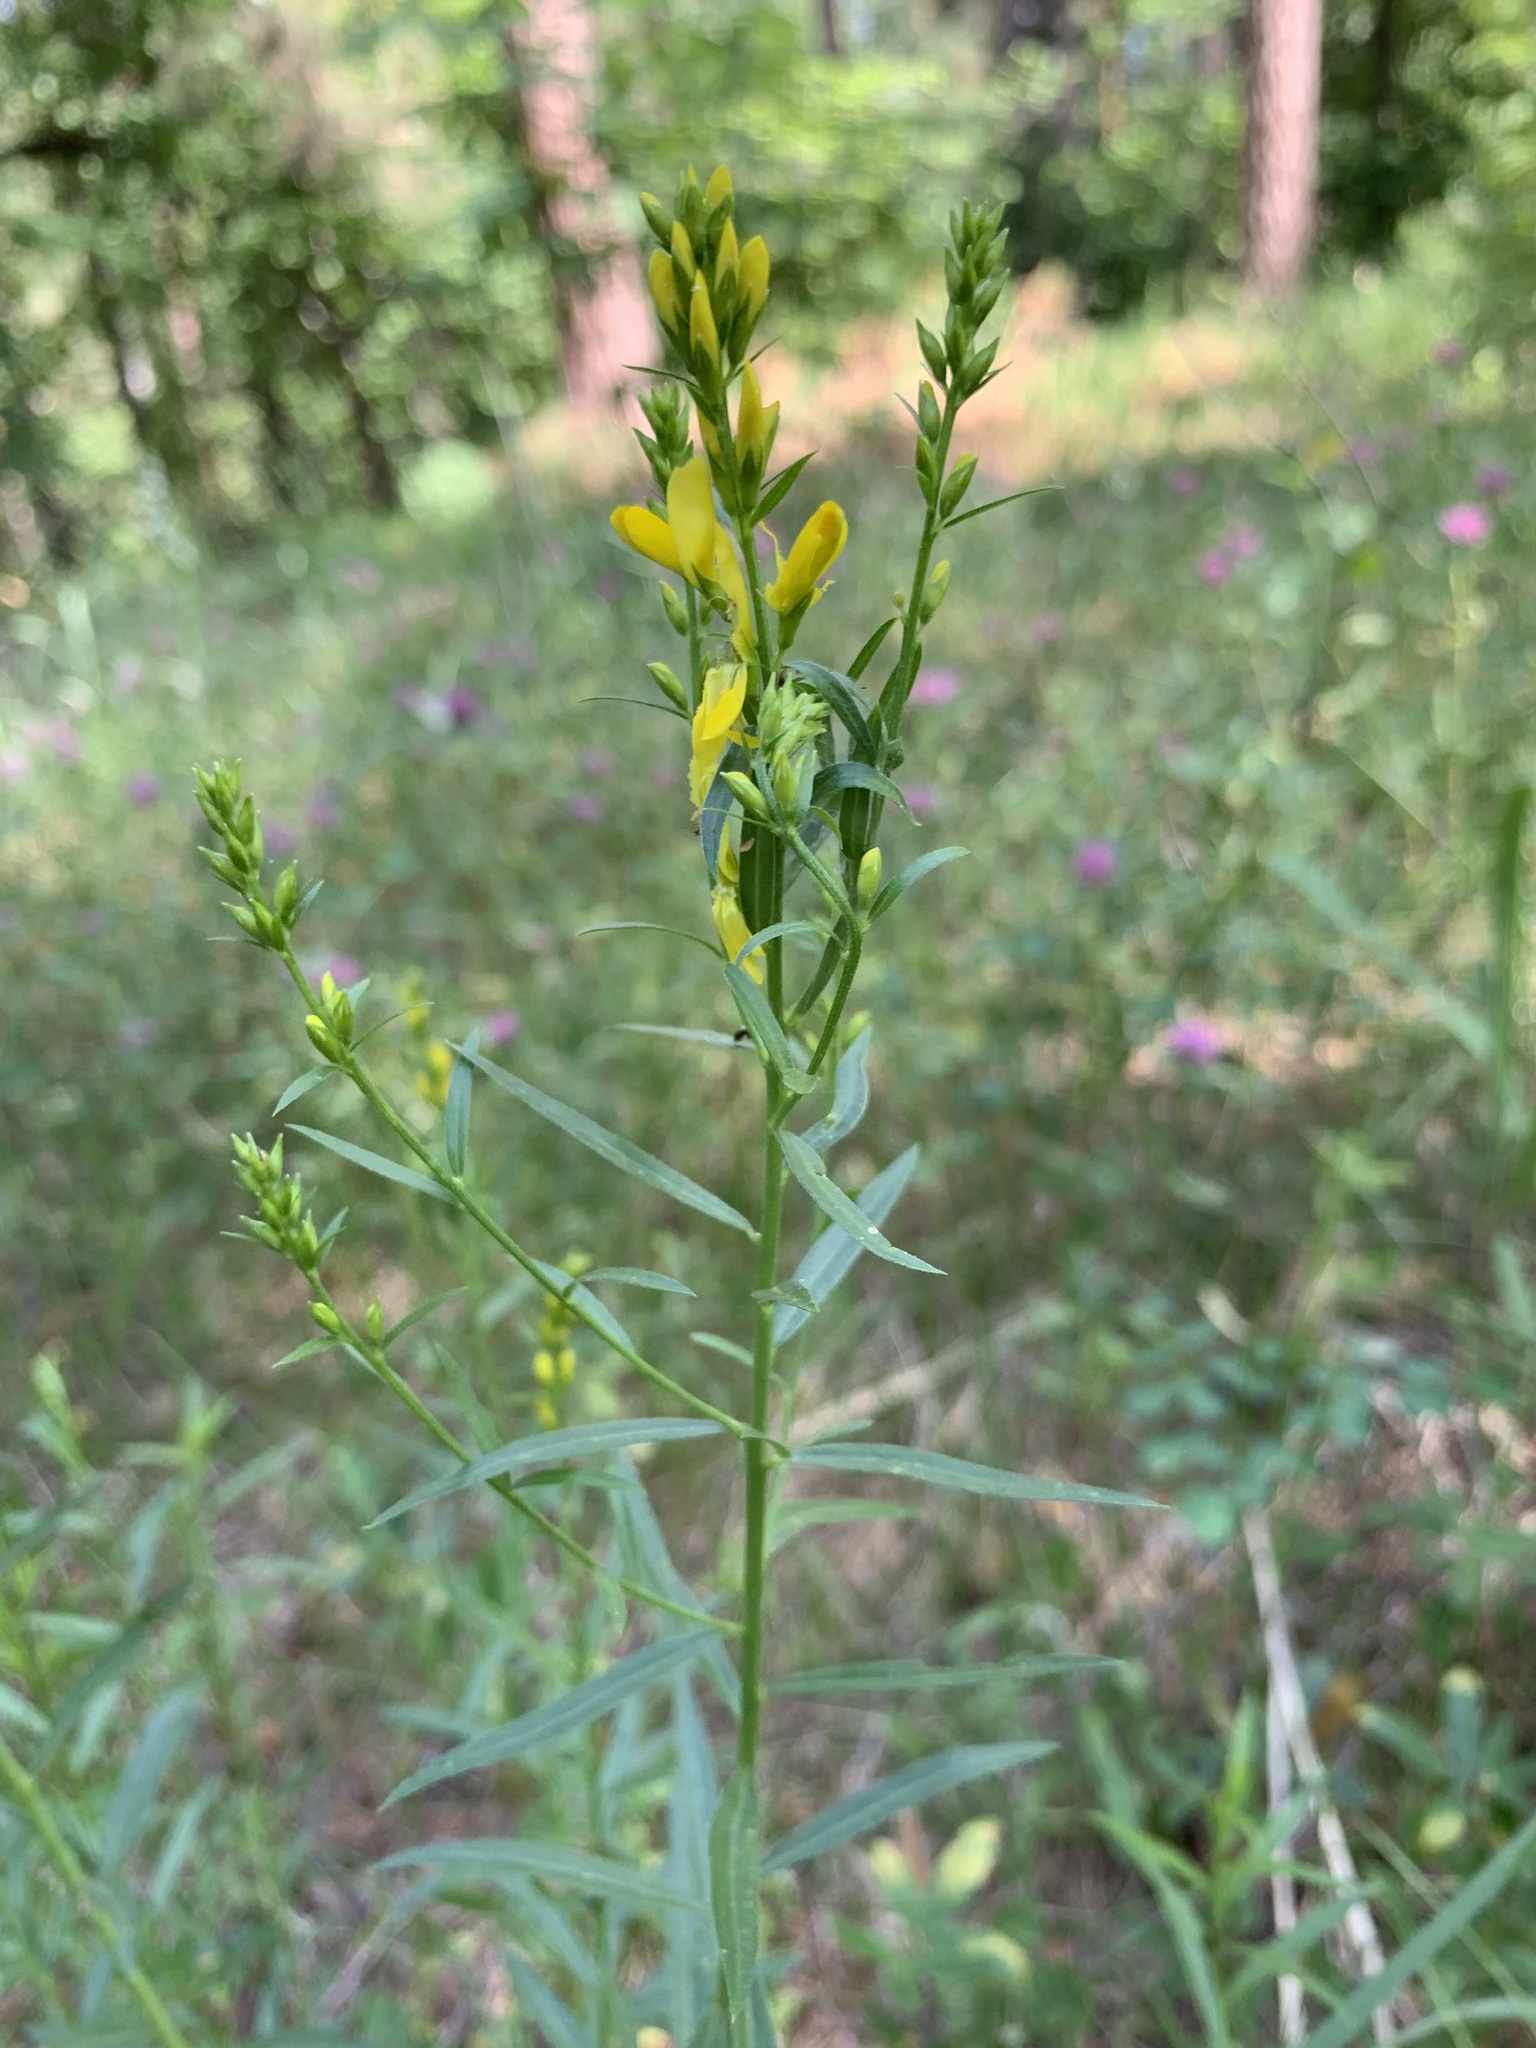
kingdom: Plantae
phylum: Tracheophyta
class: Magnoliopsida
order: Fabales
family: Fabaceae
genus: Genista
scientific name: Genista tinctoria
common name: Dyer's greenweed
